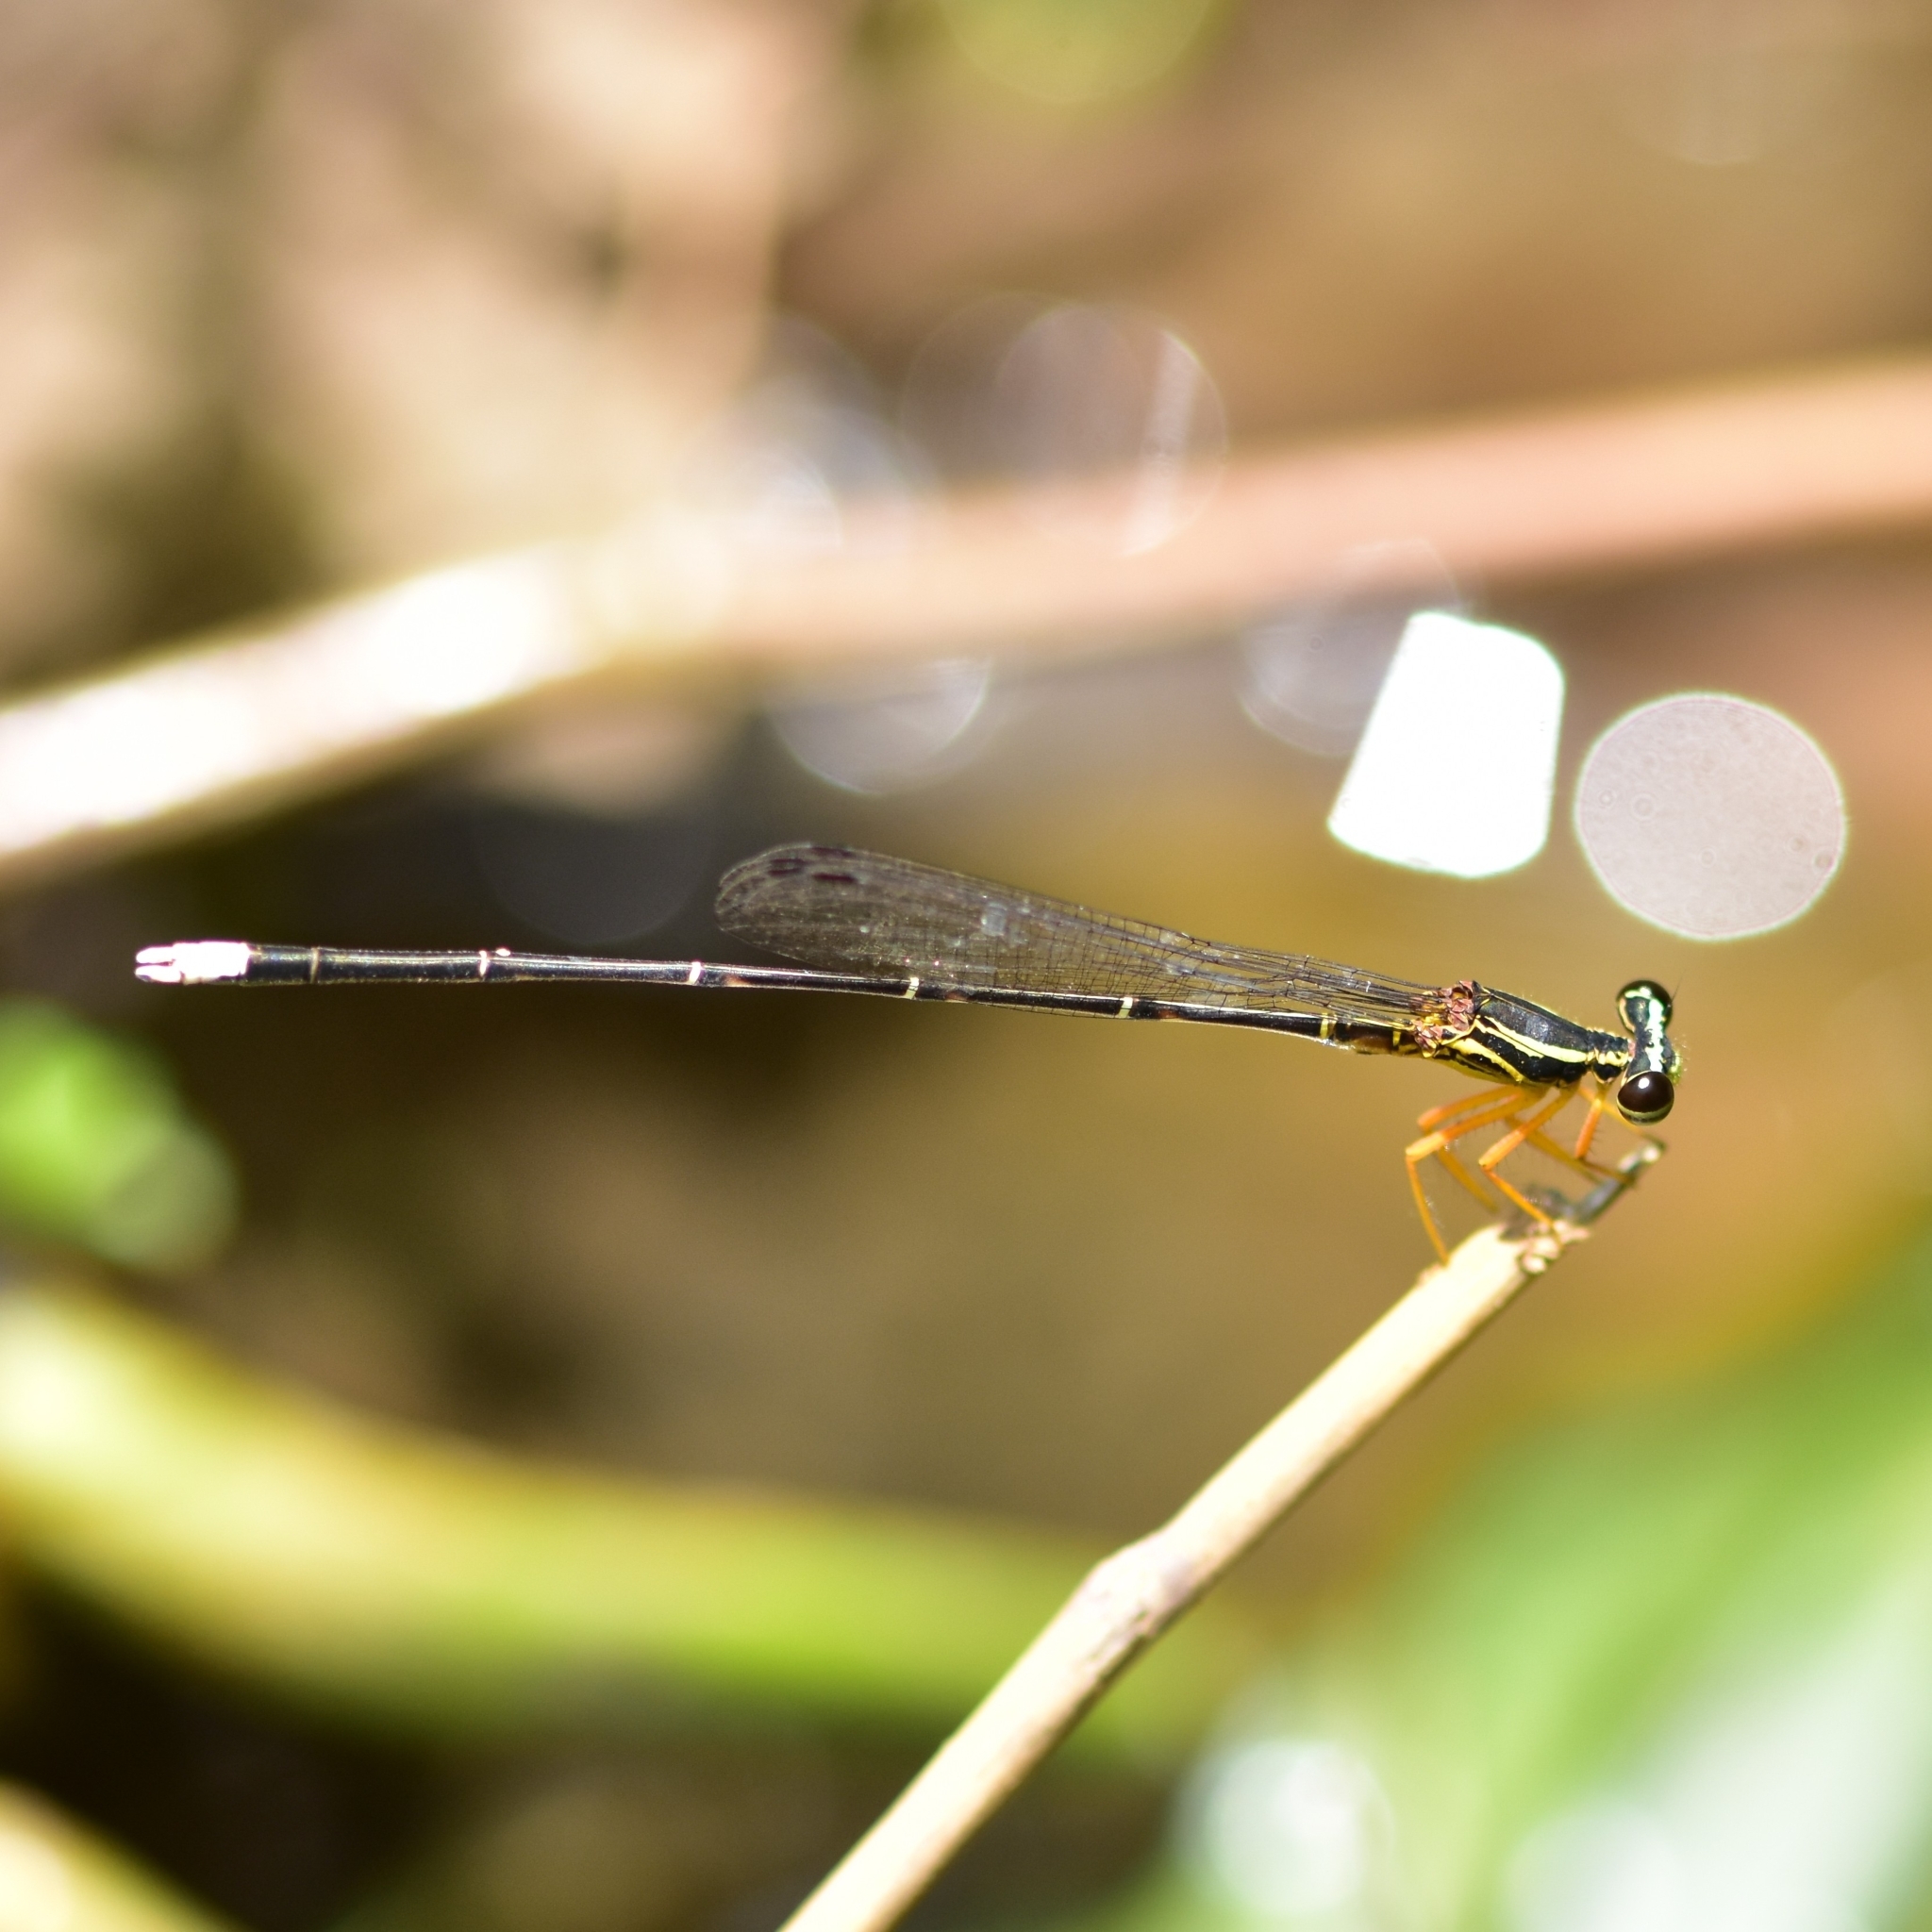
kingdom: Animalia
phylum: Arthropoda
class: Insecta
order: Odonata
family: Platycnemididae
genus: Copera
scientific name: Copera marginipes
